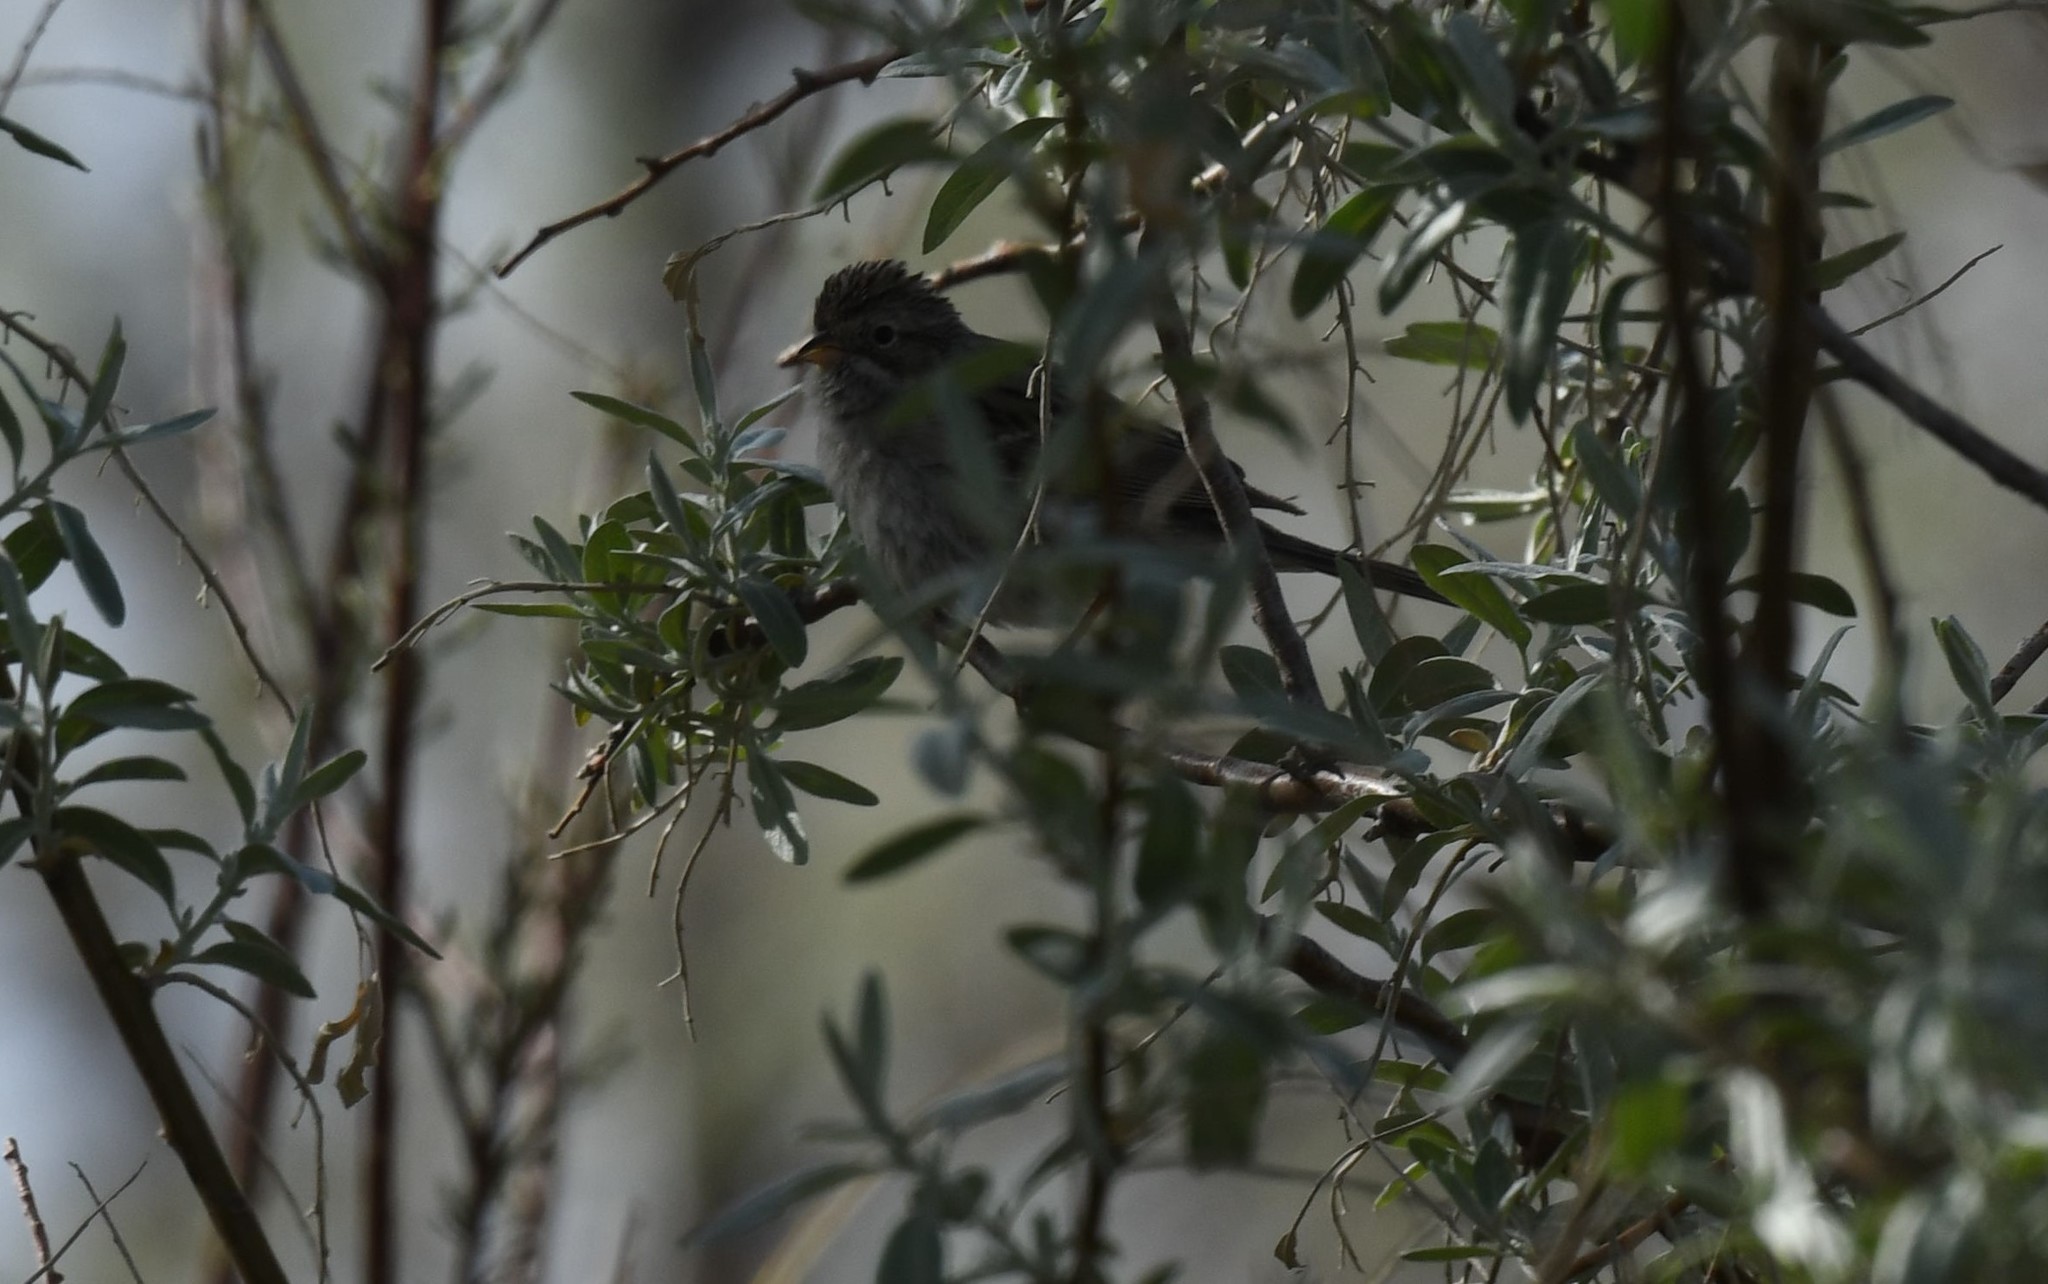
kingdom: Animalia
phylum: Chordata
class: Aves
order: Passeriformes
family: Passerellidae
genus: Spizella
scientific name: Spizella breweri
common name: Brewer's sparrow
